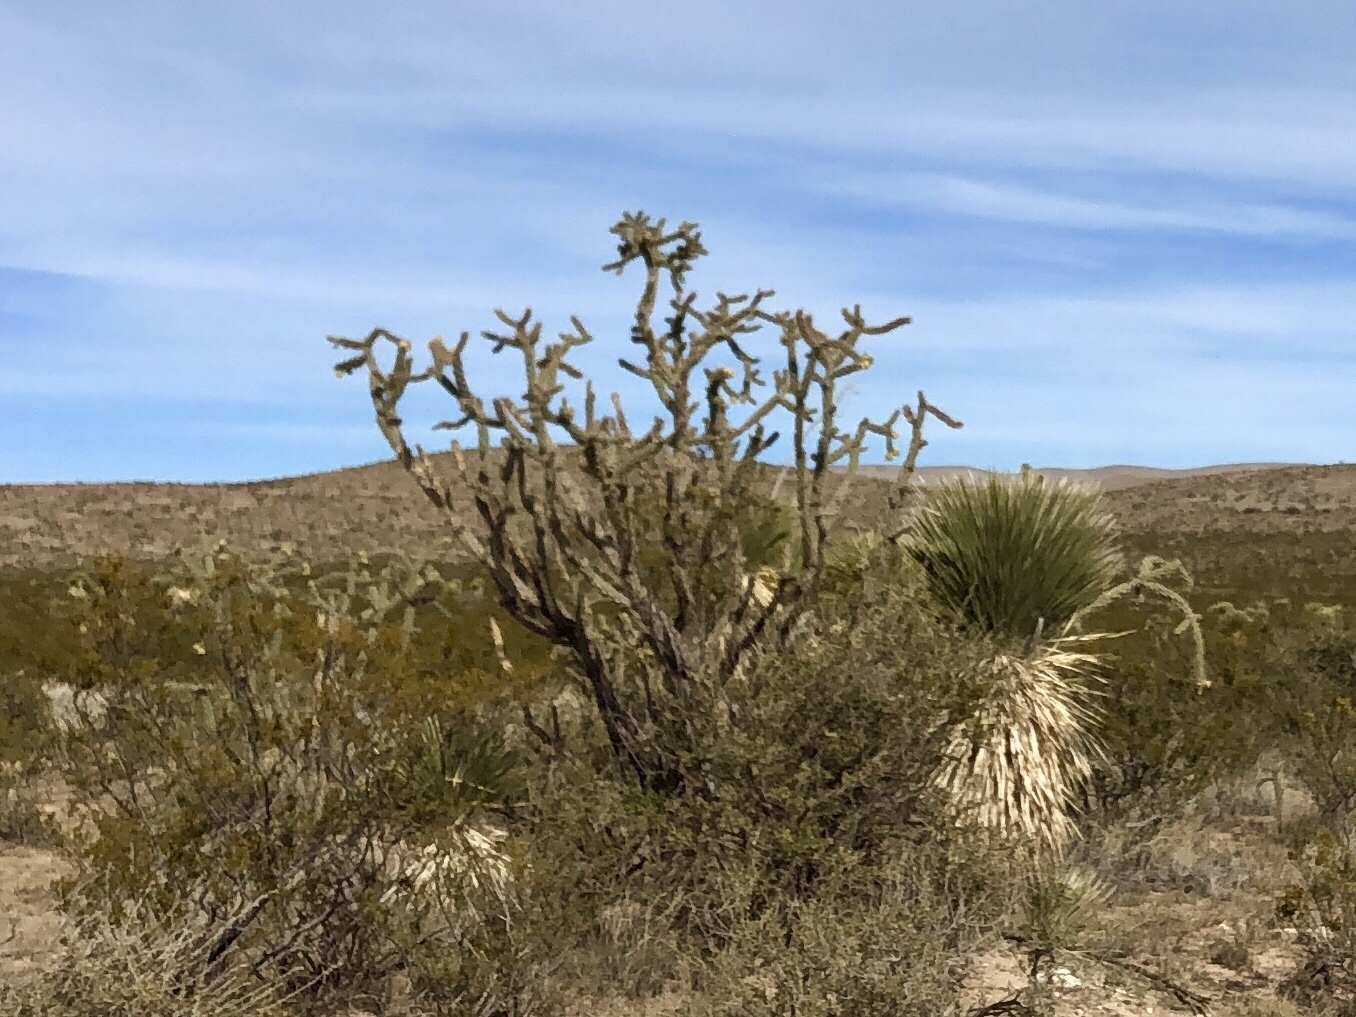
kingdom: Plantae
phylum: Tracheophyta
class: Magnoliopsida
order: Caryophyllales
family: Cactaceae
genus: Cylindropuntia
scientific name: Cylindropuntia imbricata
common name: Candelabrum cactus
